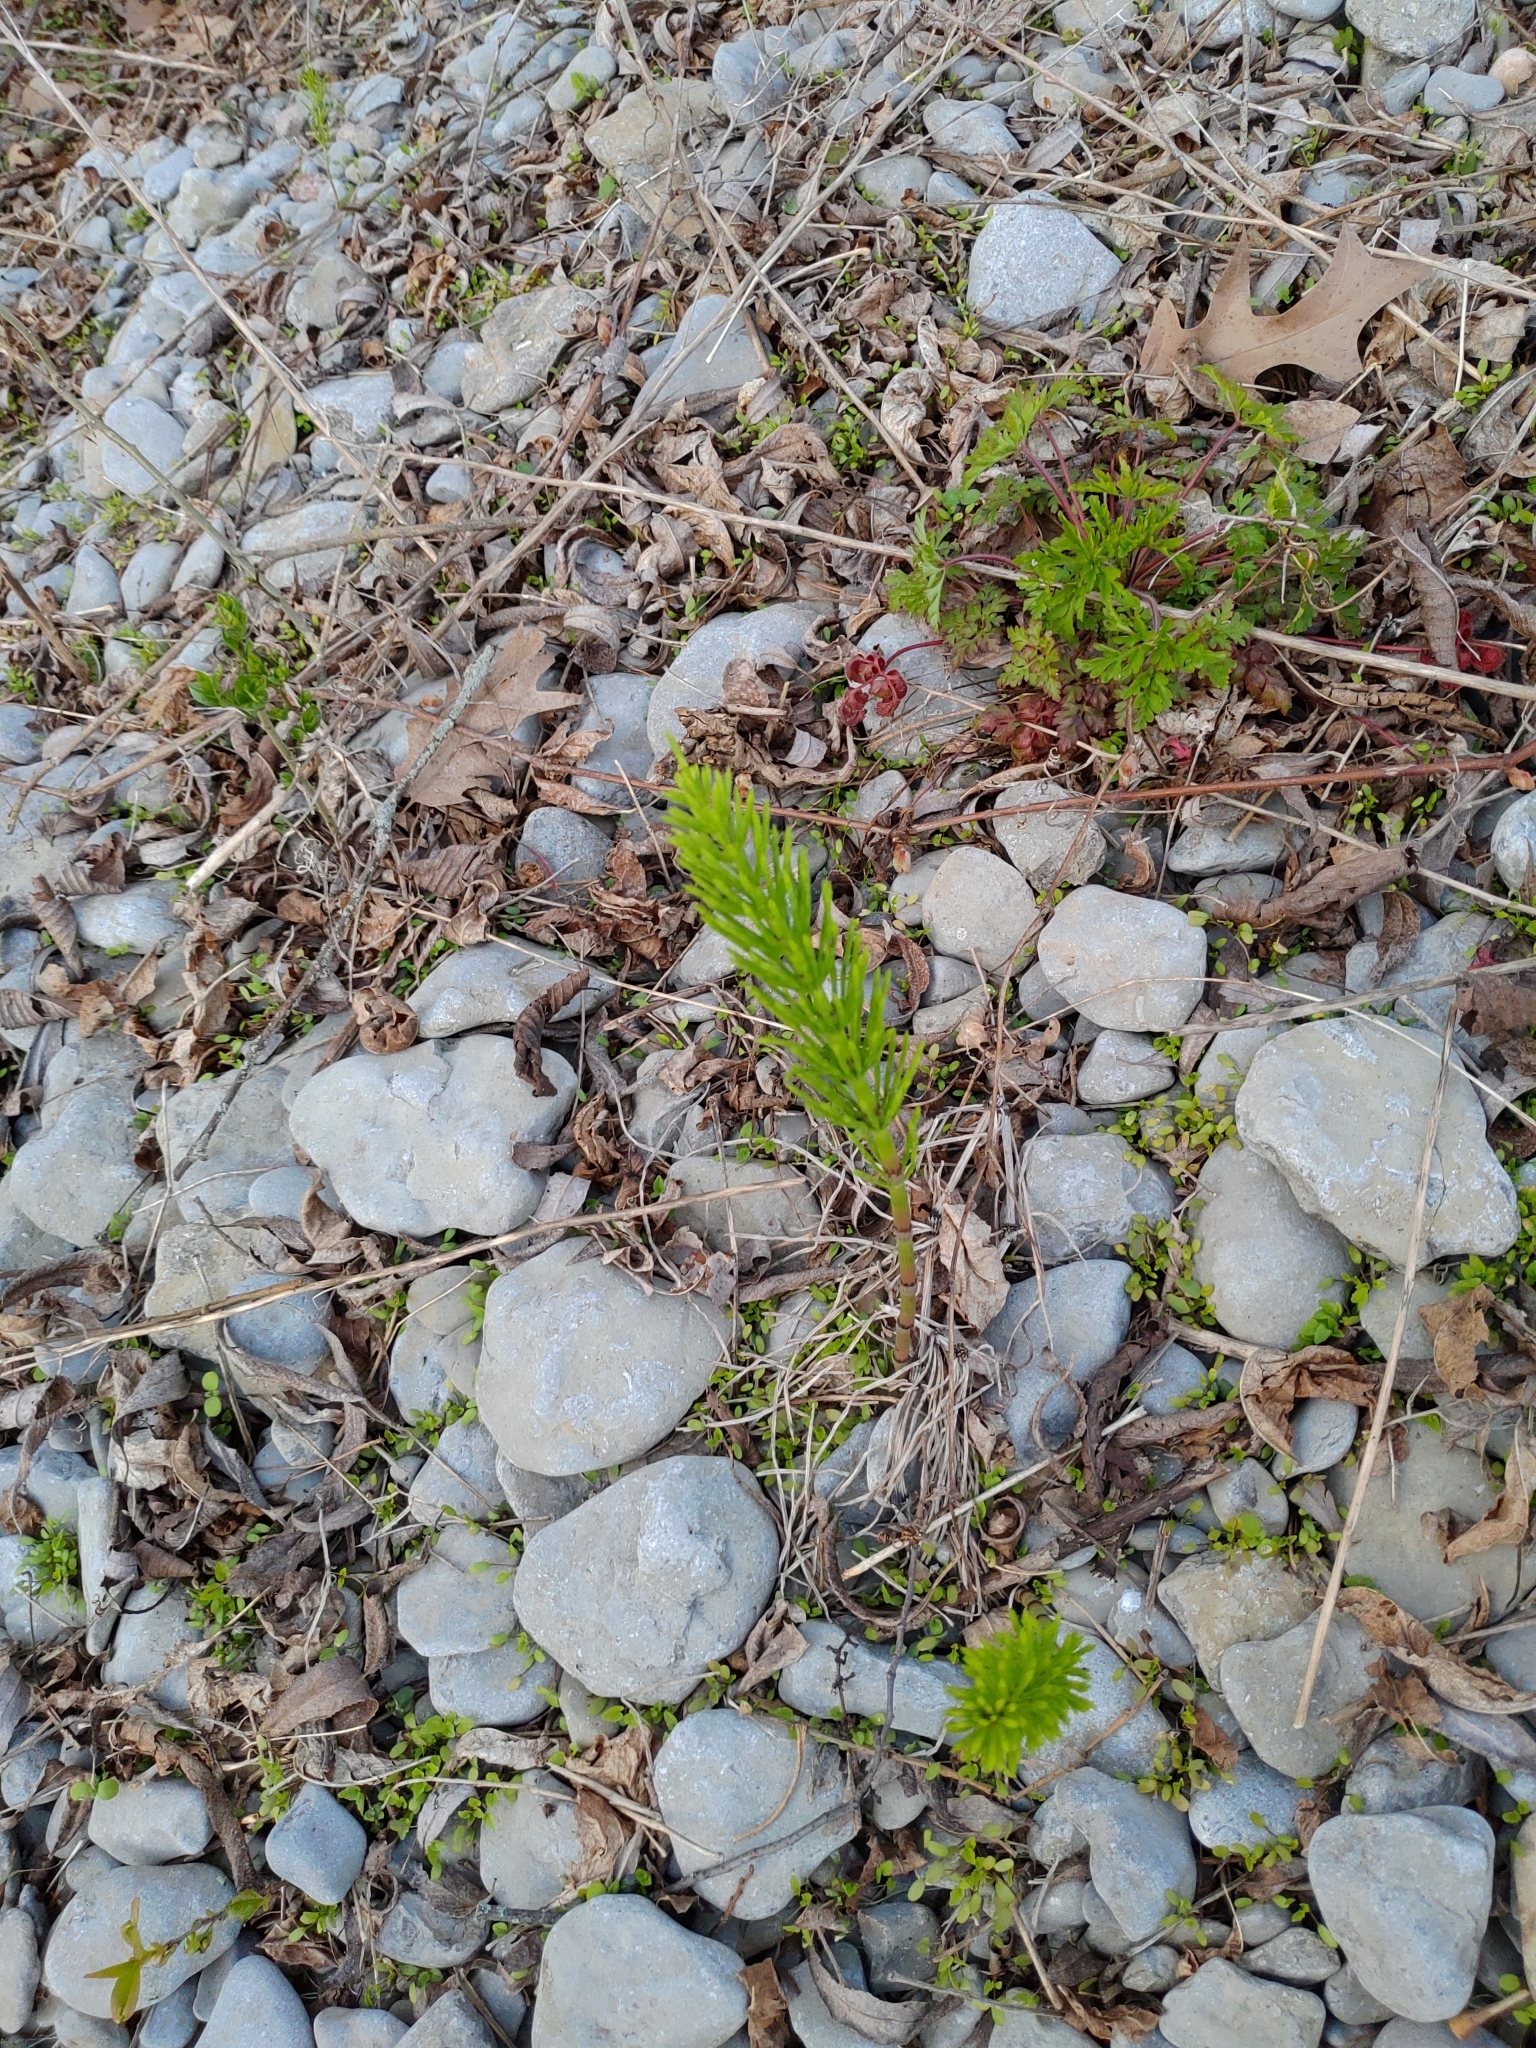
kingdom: Plantae
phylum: Tracheophyta
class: Polypodiopsida
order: Equisetales
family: Equisetaceae
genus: Equisetum
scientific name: Equisetum arvense
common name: Field horsetail
